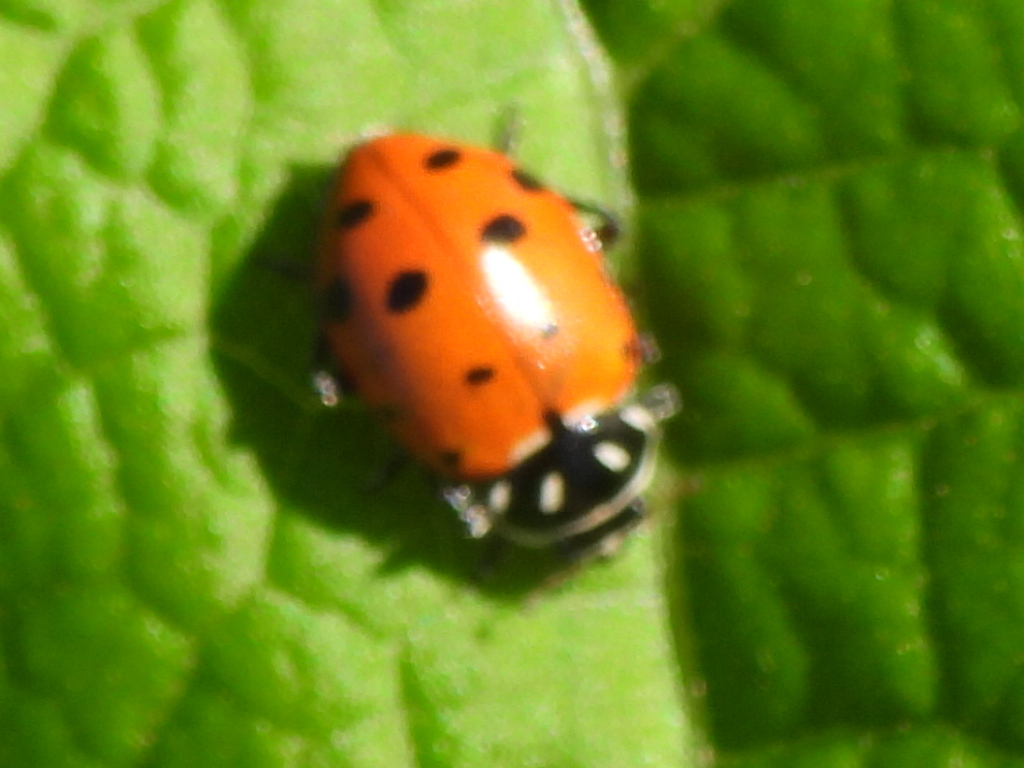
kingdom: Animalia
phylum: Arthropoda
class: Insecta
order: Coleoptera
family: Coccinellidae
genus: Hippodamia
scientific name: Hippodamia convergens
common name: Convergent lady beetle
